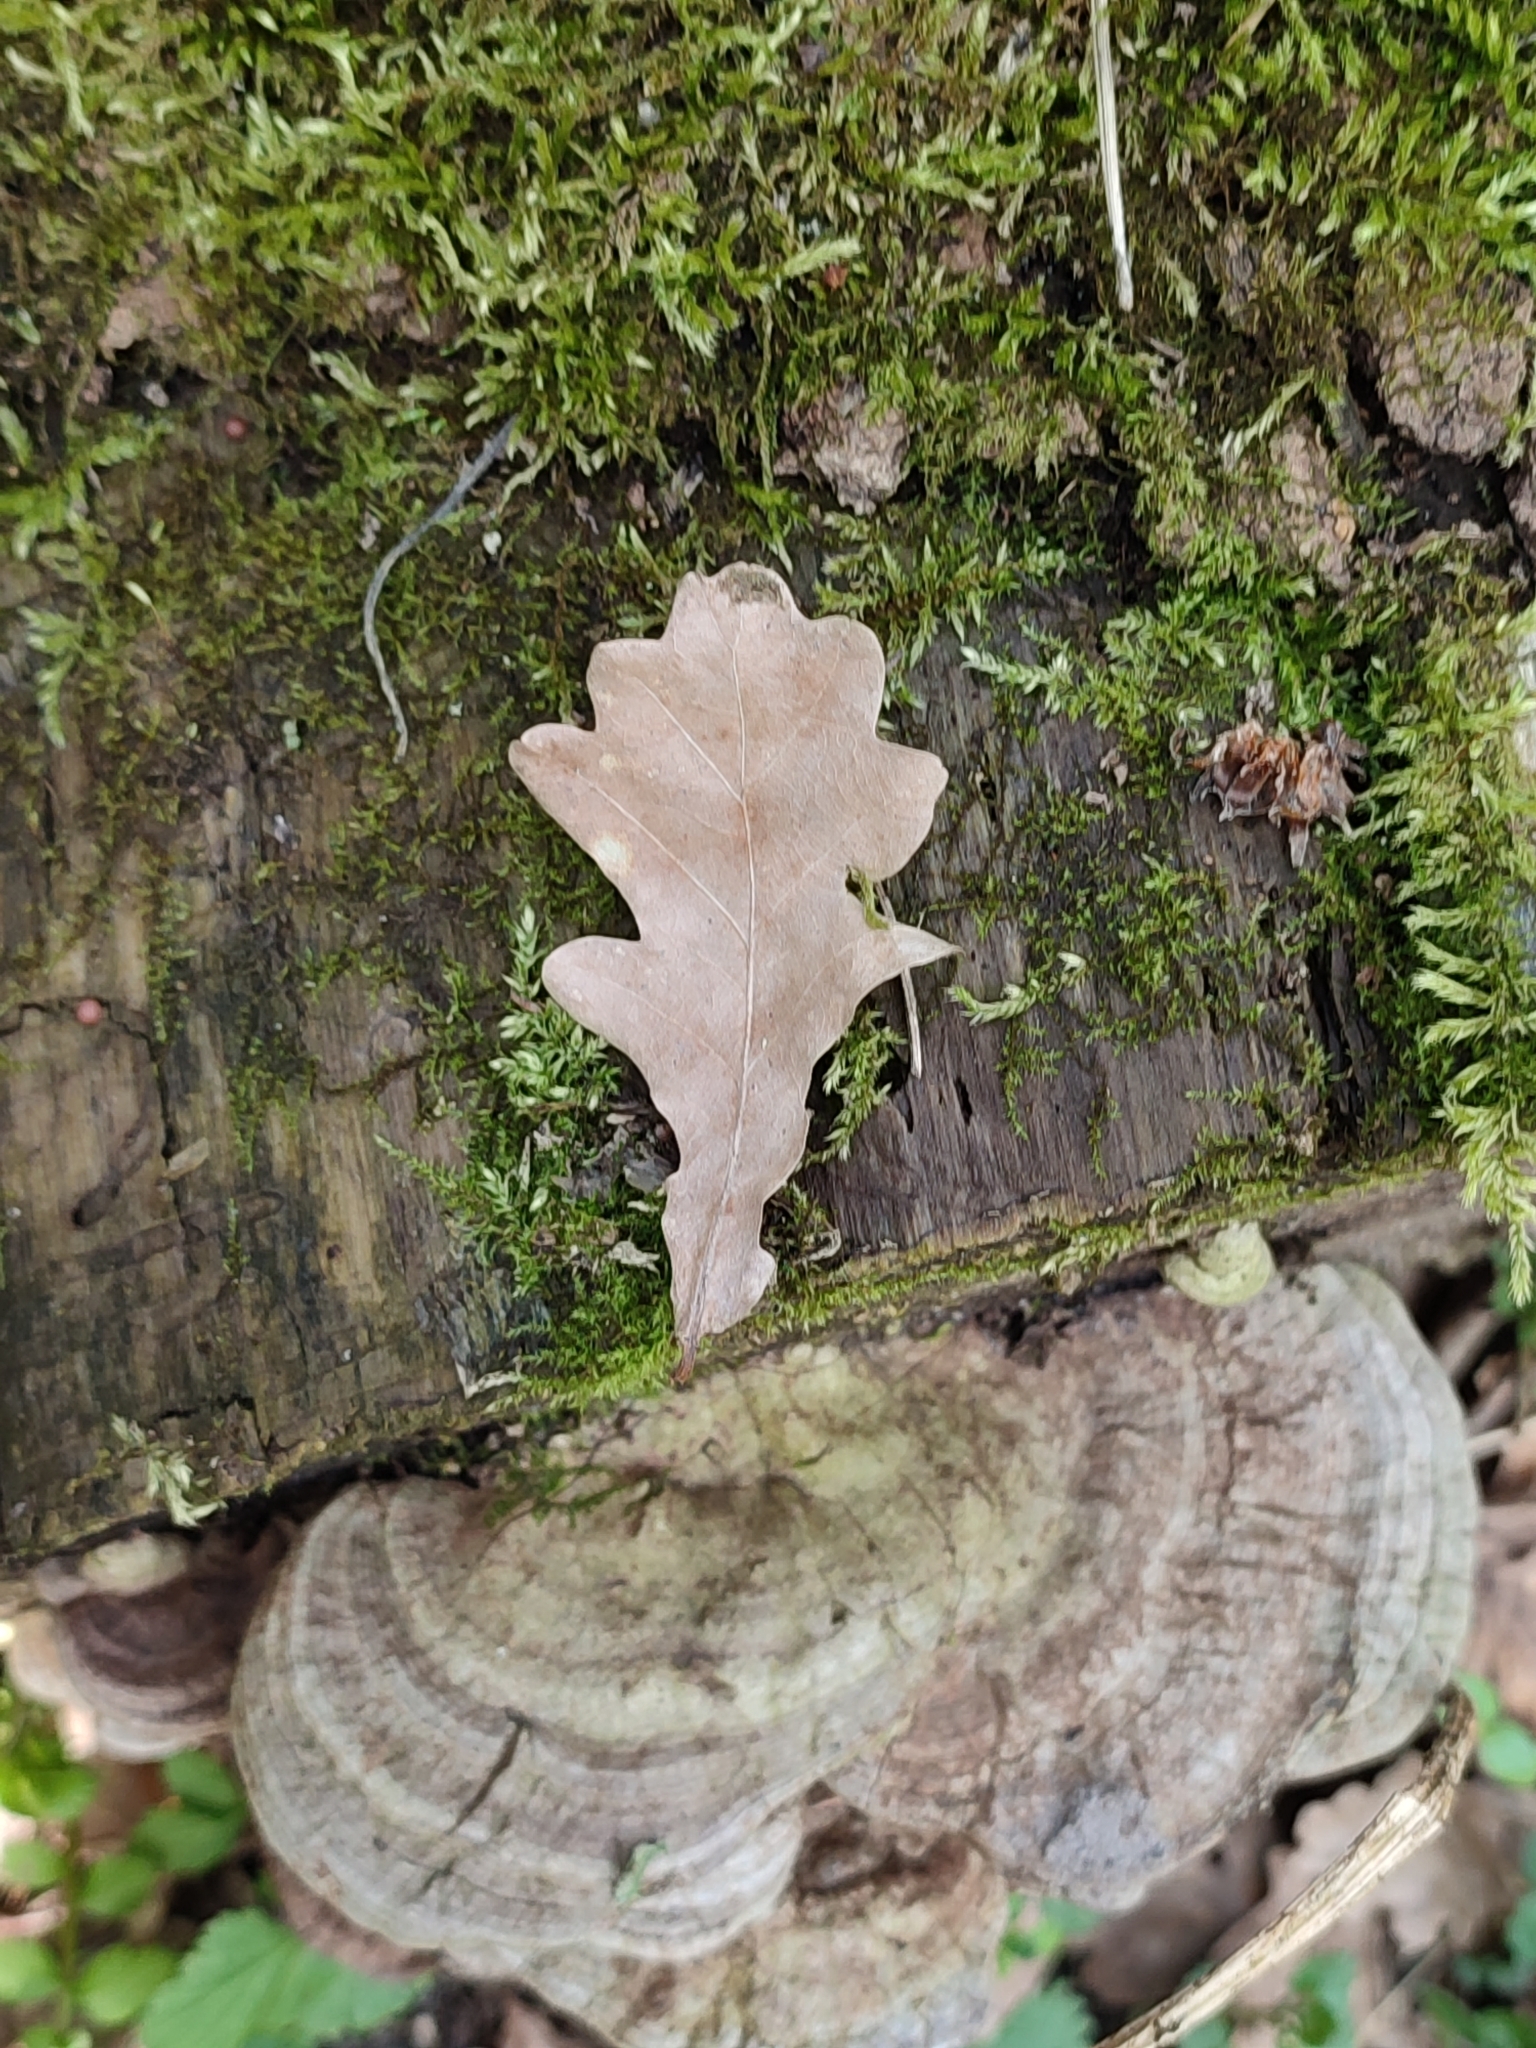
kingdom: Plantae
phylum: Tracheophyta
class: Magnoliopsida
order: Fagales
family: Fagaceae
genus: Quercus
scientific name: Quercus robur
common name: Pedunculate oak
